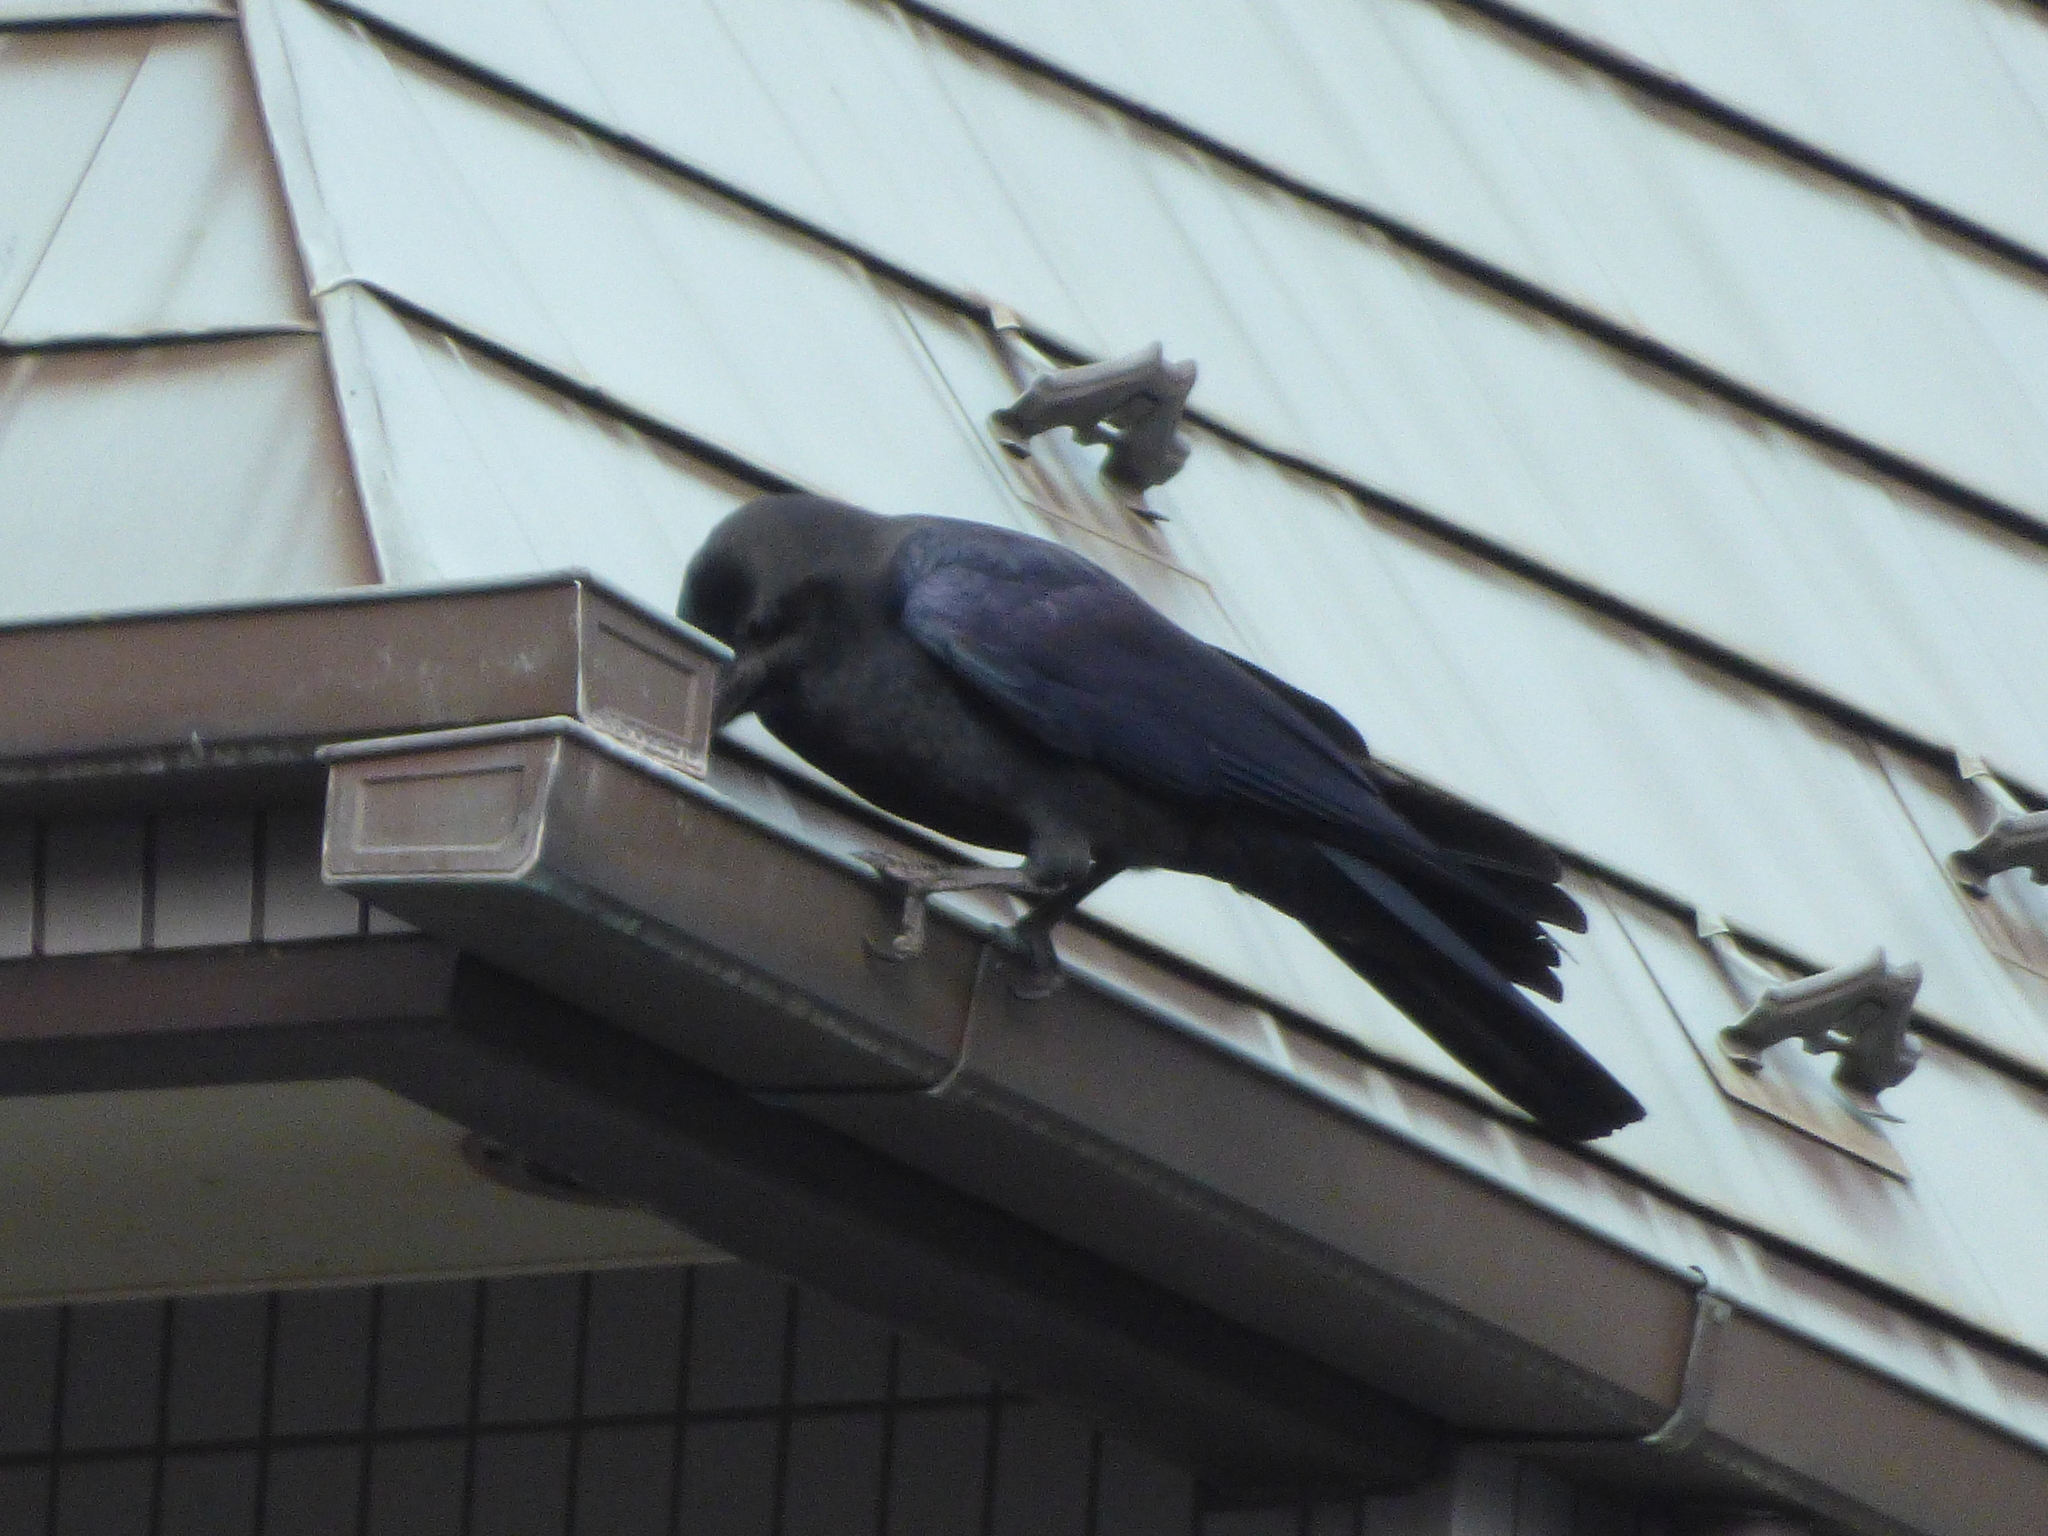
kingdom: Animalia
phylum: Chordata
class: Aves
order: Passeriformes
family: Corvidae
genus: Corvus
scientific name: Corvus macrorhynchos
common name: Large-billed crow
